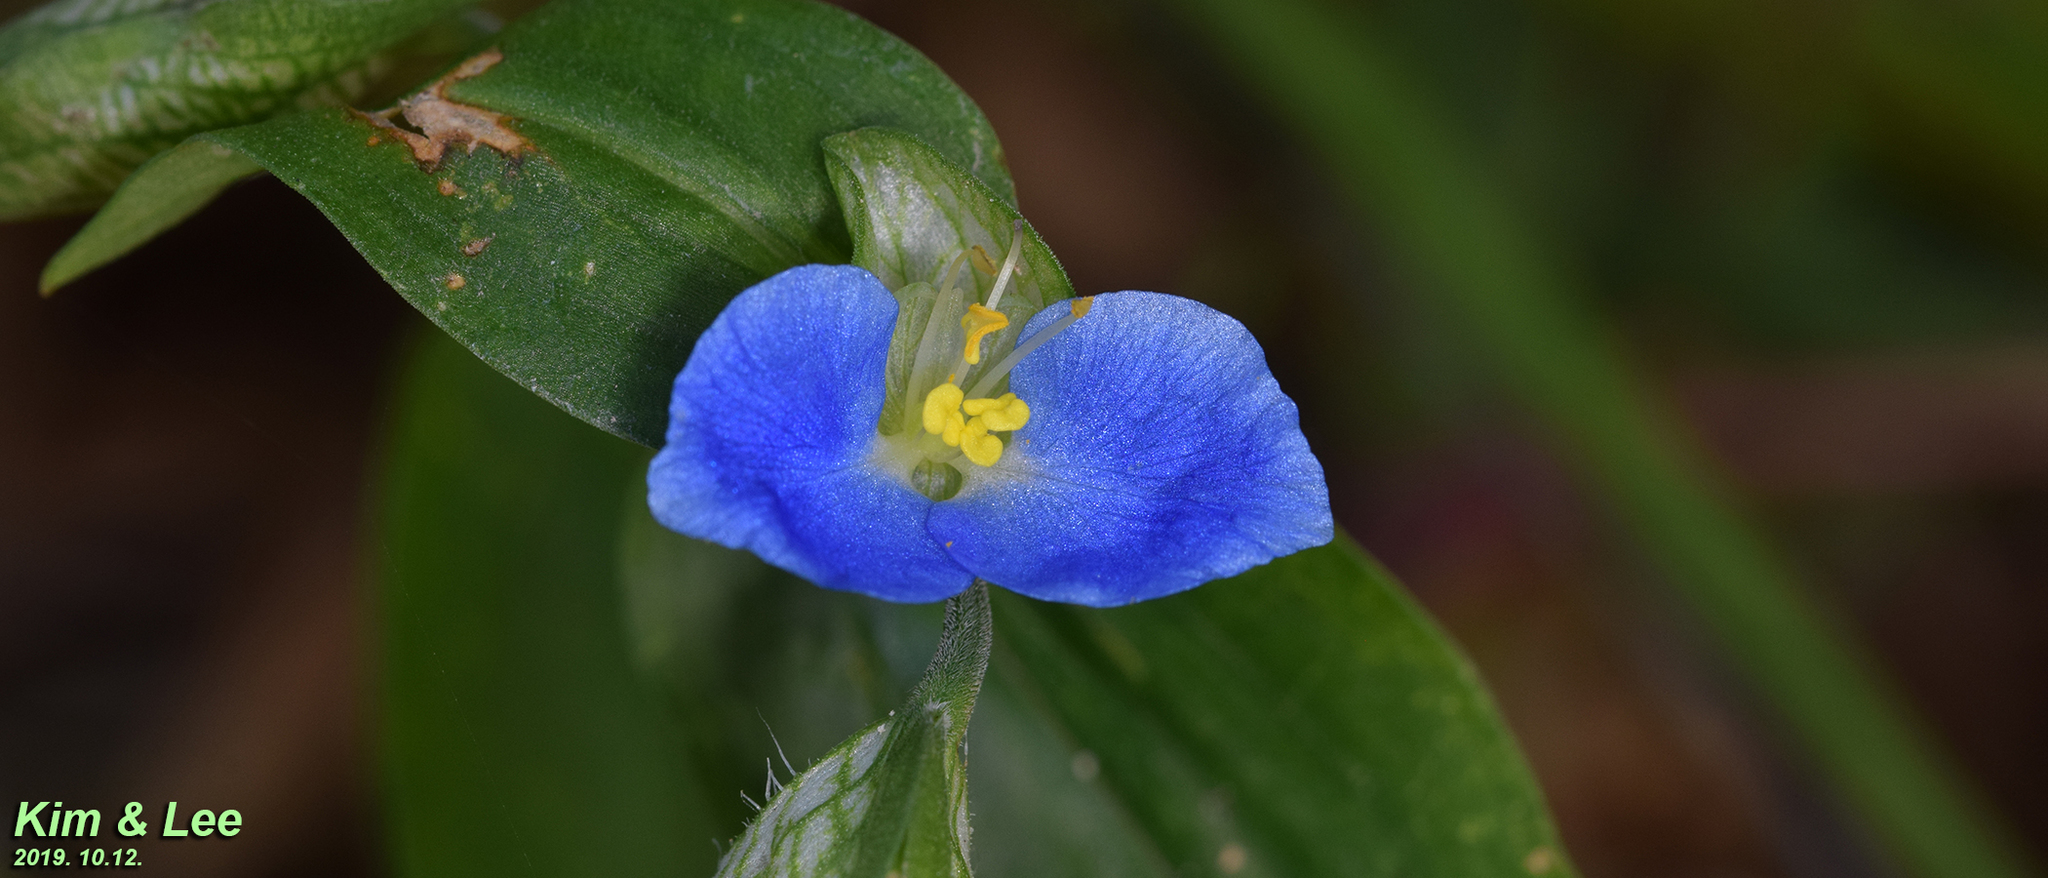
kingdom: Plantae
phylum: Tracheophyta
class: Liliopsida
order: Commelinales
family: Commelinaceae
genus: Commelina
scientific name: Commelina communis
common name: Asiatic dayflower
